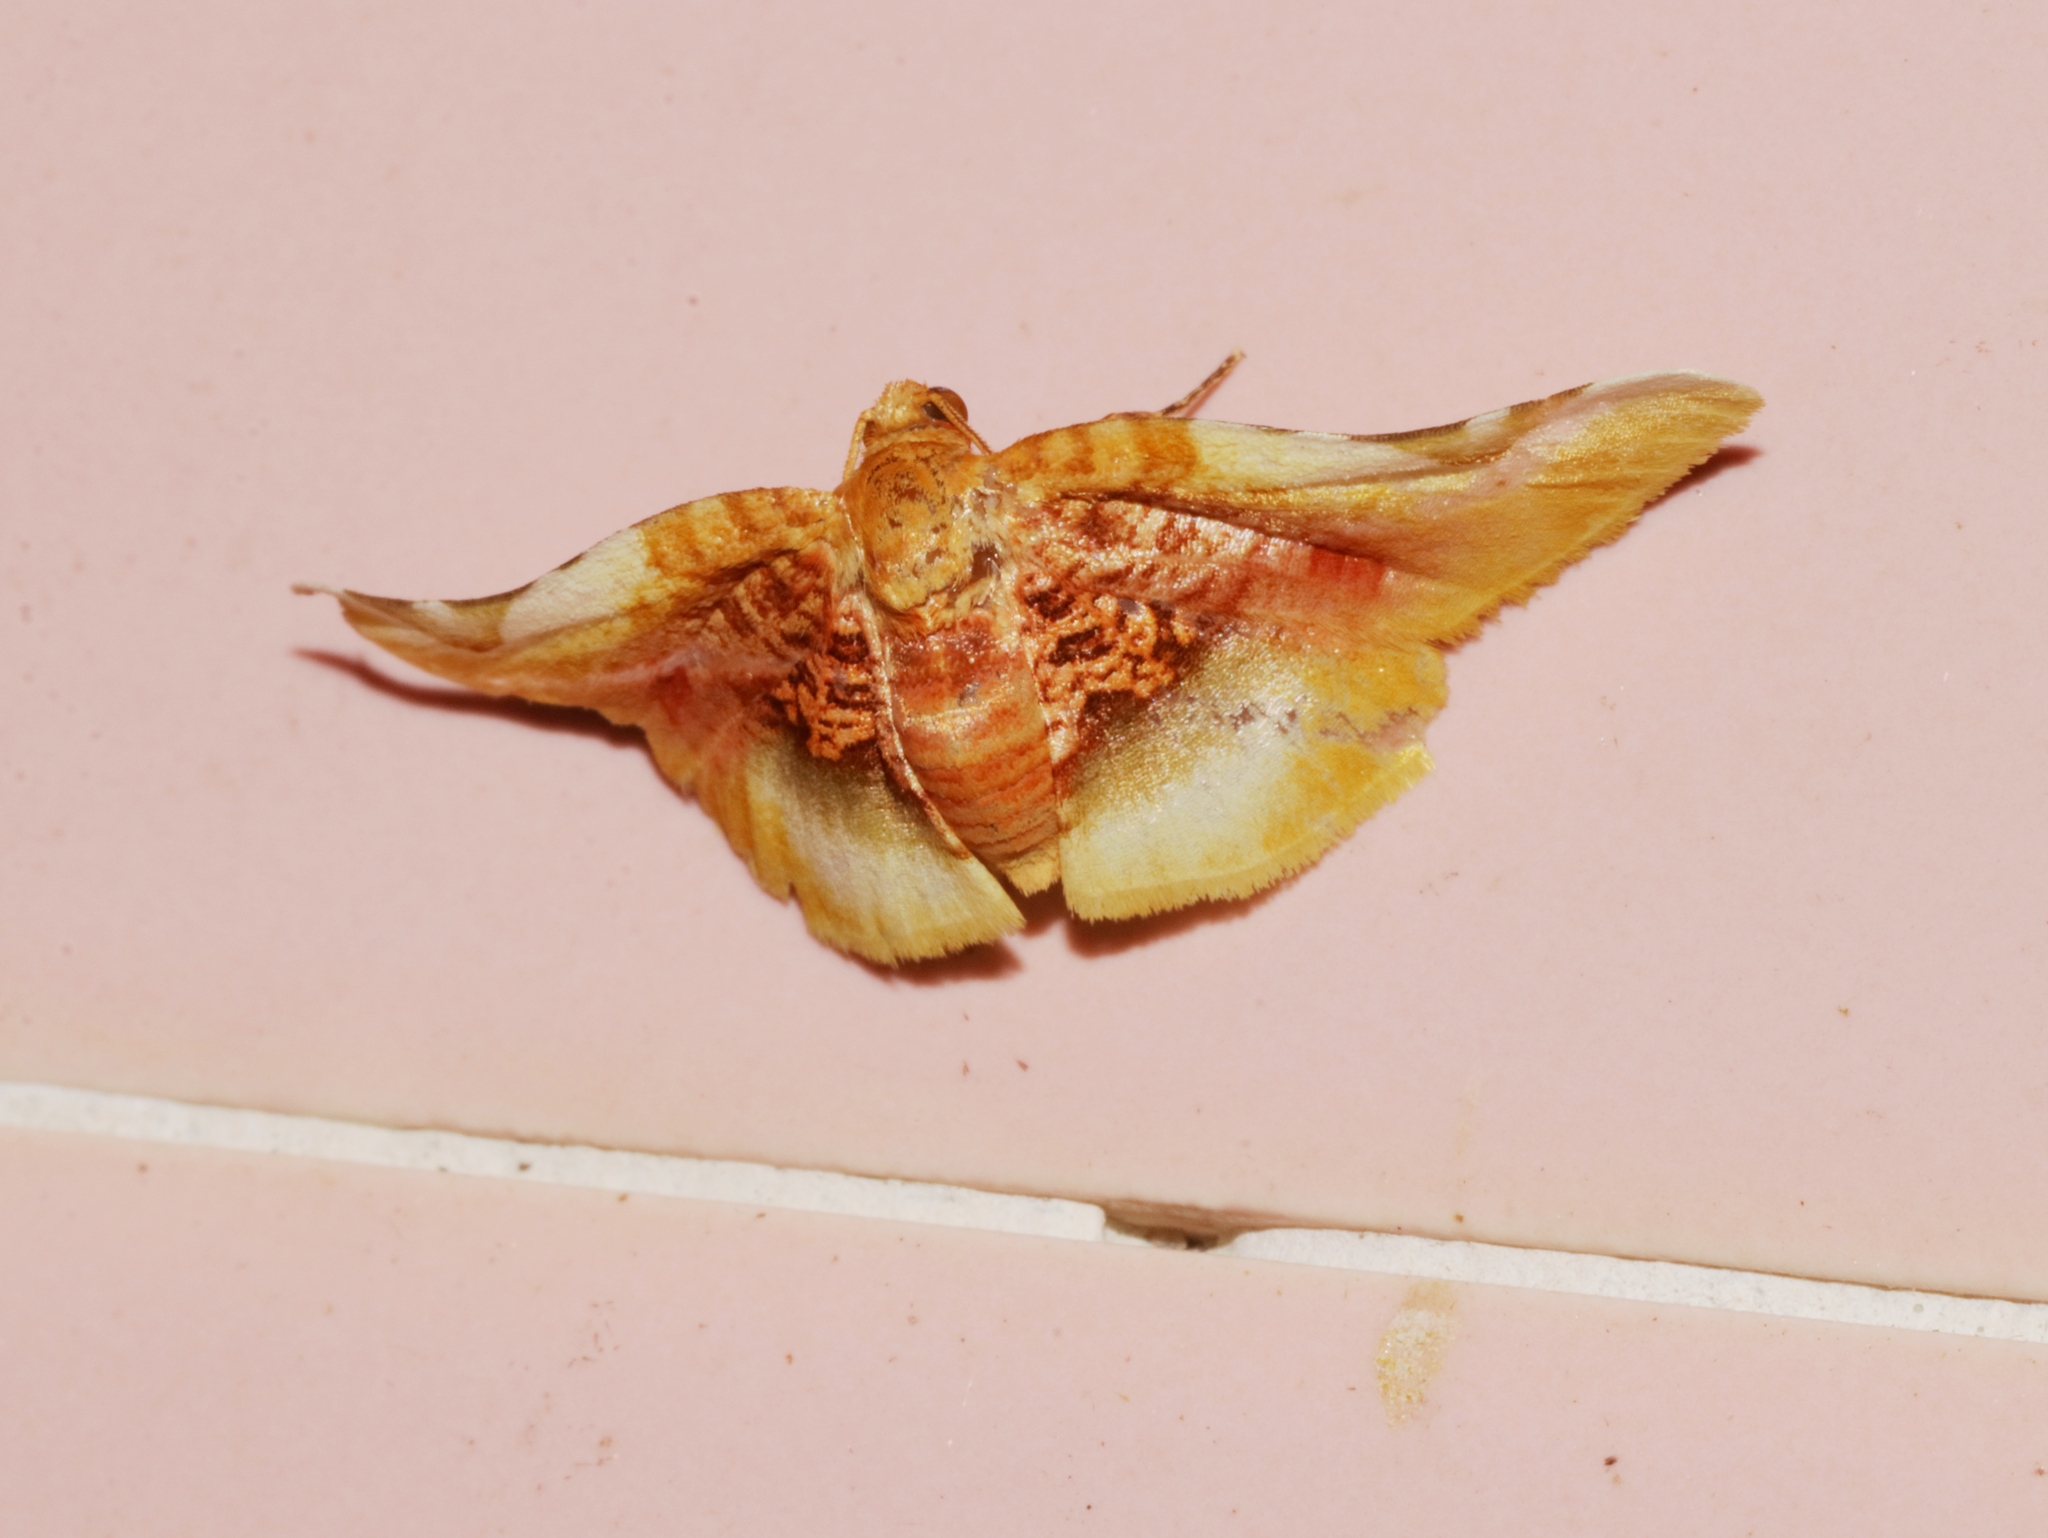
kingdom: Animalia
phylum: Arthropoda
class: Insecta
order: Lepidoptera
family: Thyrididae
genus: Pyrinioides
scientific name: Pyrinioides sinuosa
